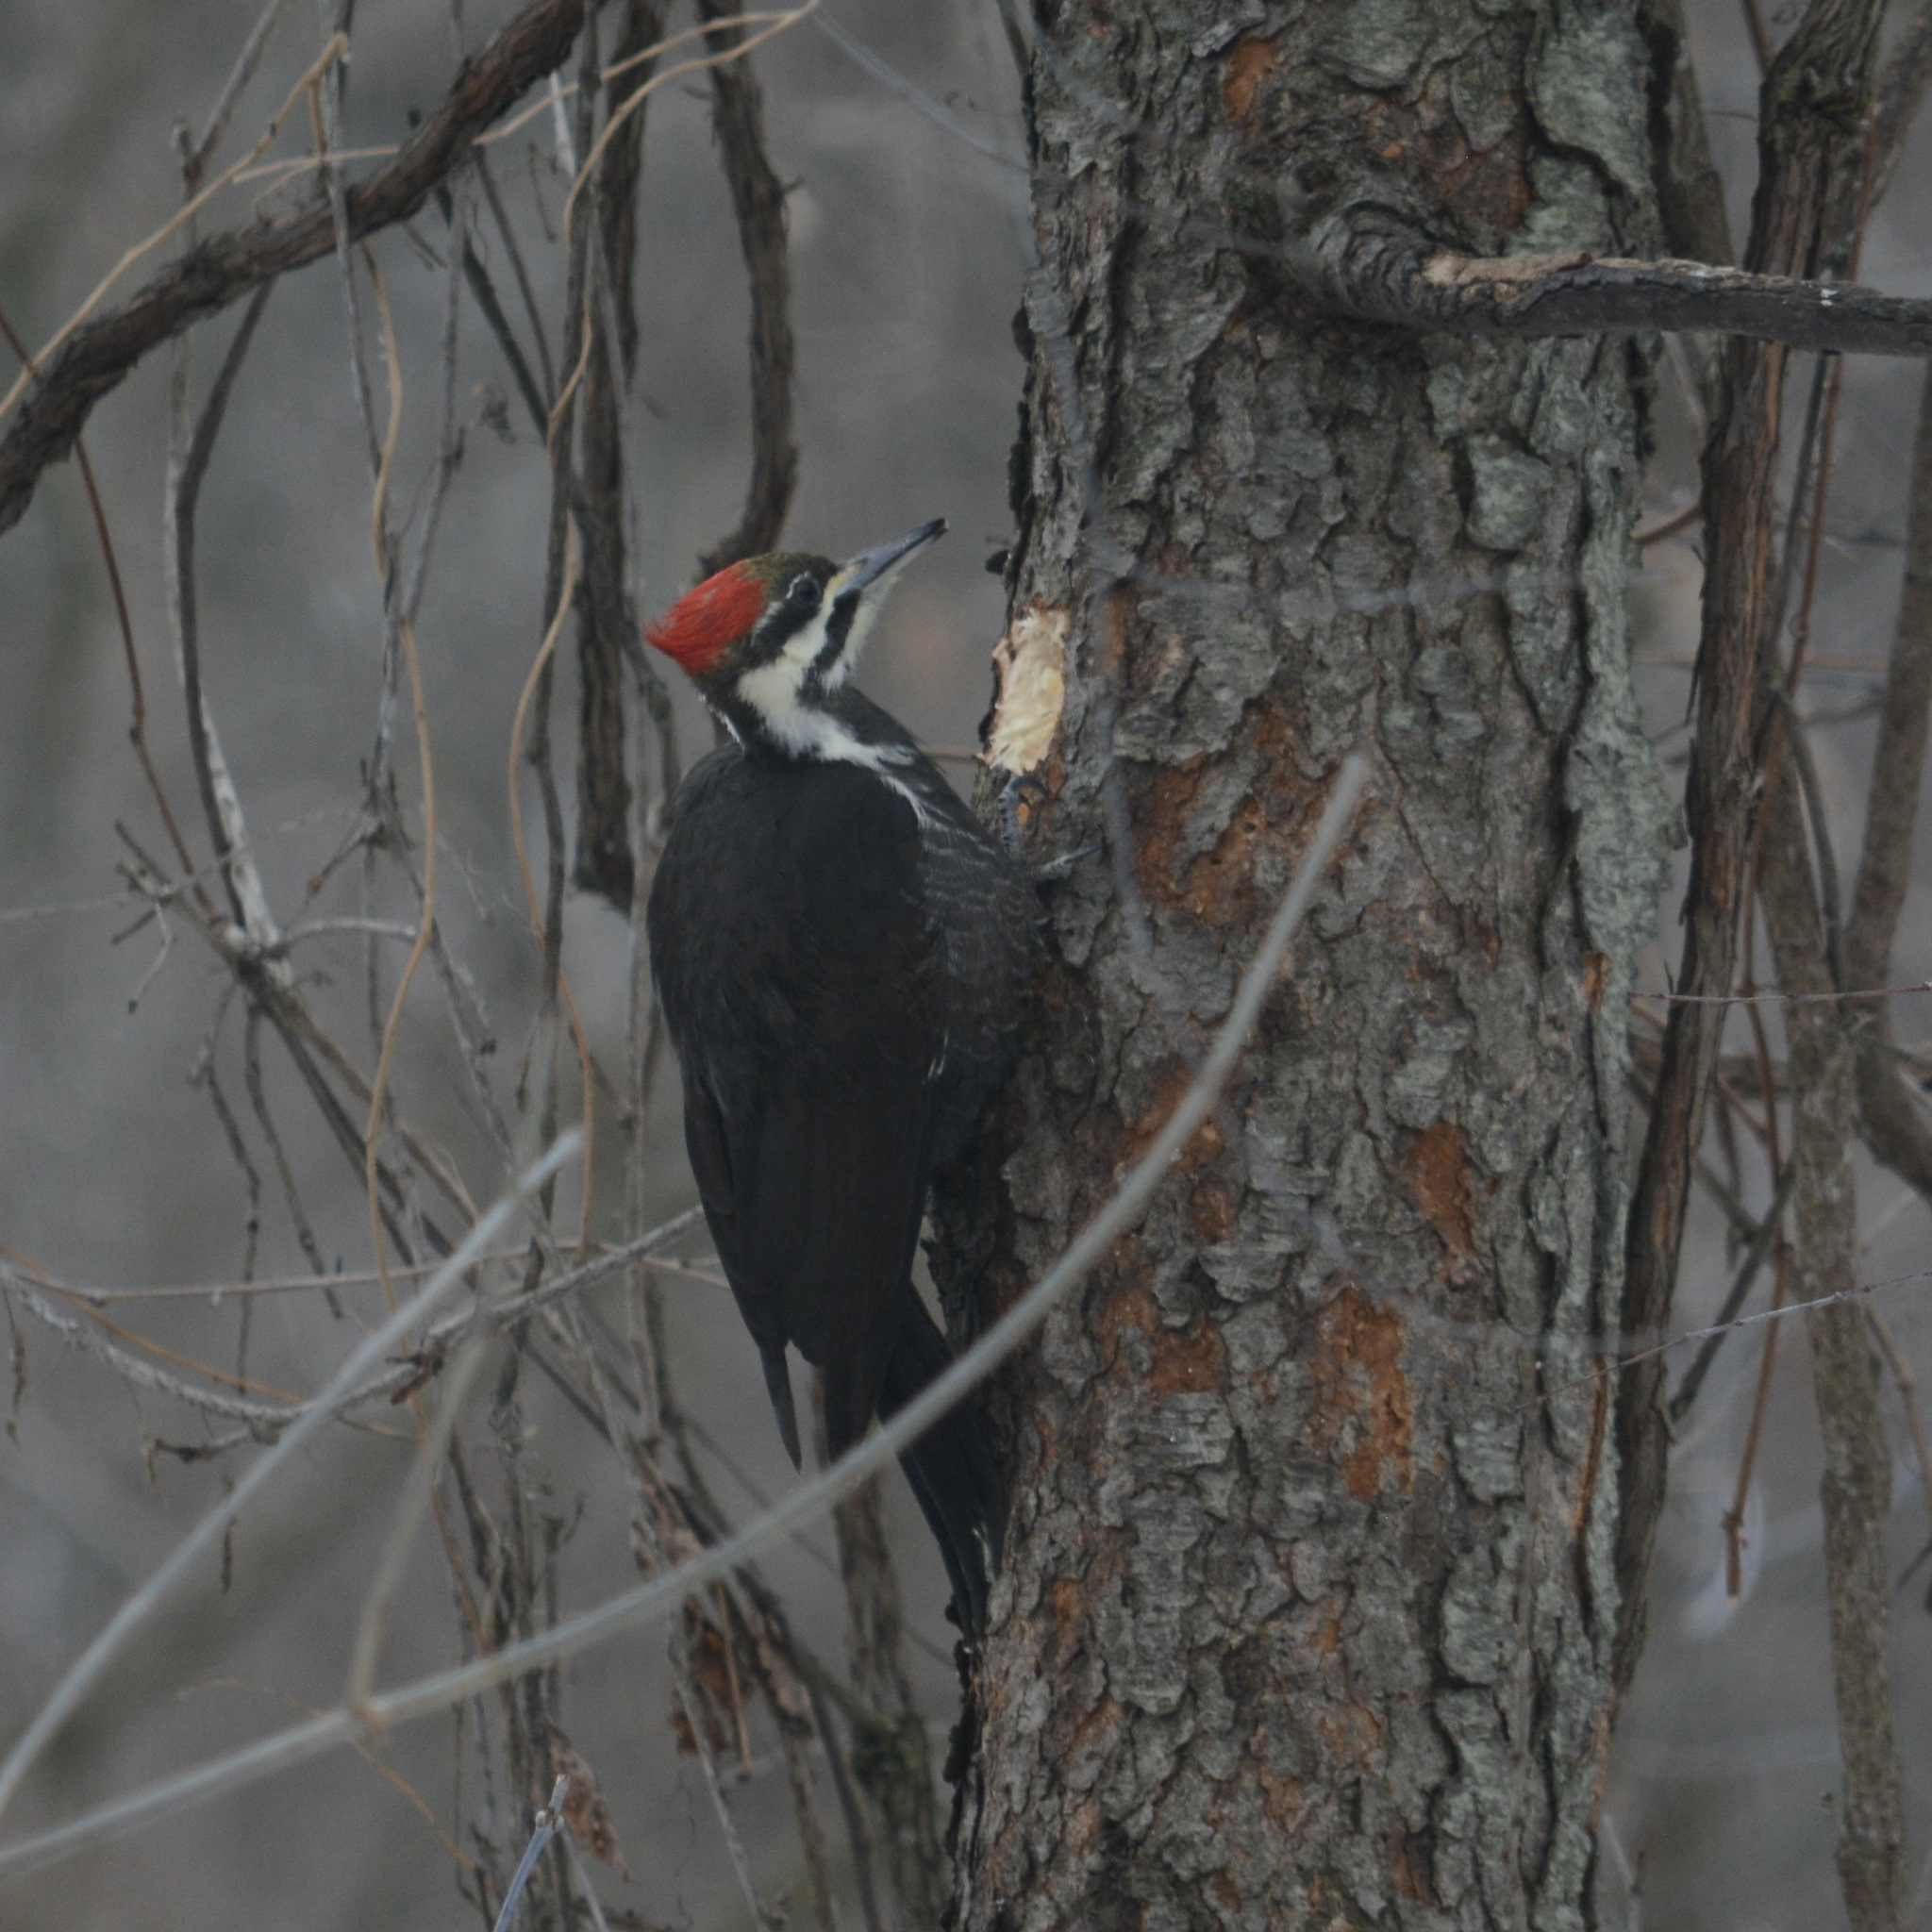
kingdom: Animalia
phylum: Chordata
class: Aves
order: Piciformes
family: Picidae
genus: Dryocopus
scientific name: Dryocopus pileatus
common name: Pileated woodpecker
